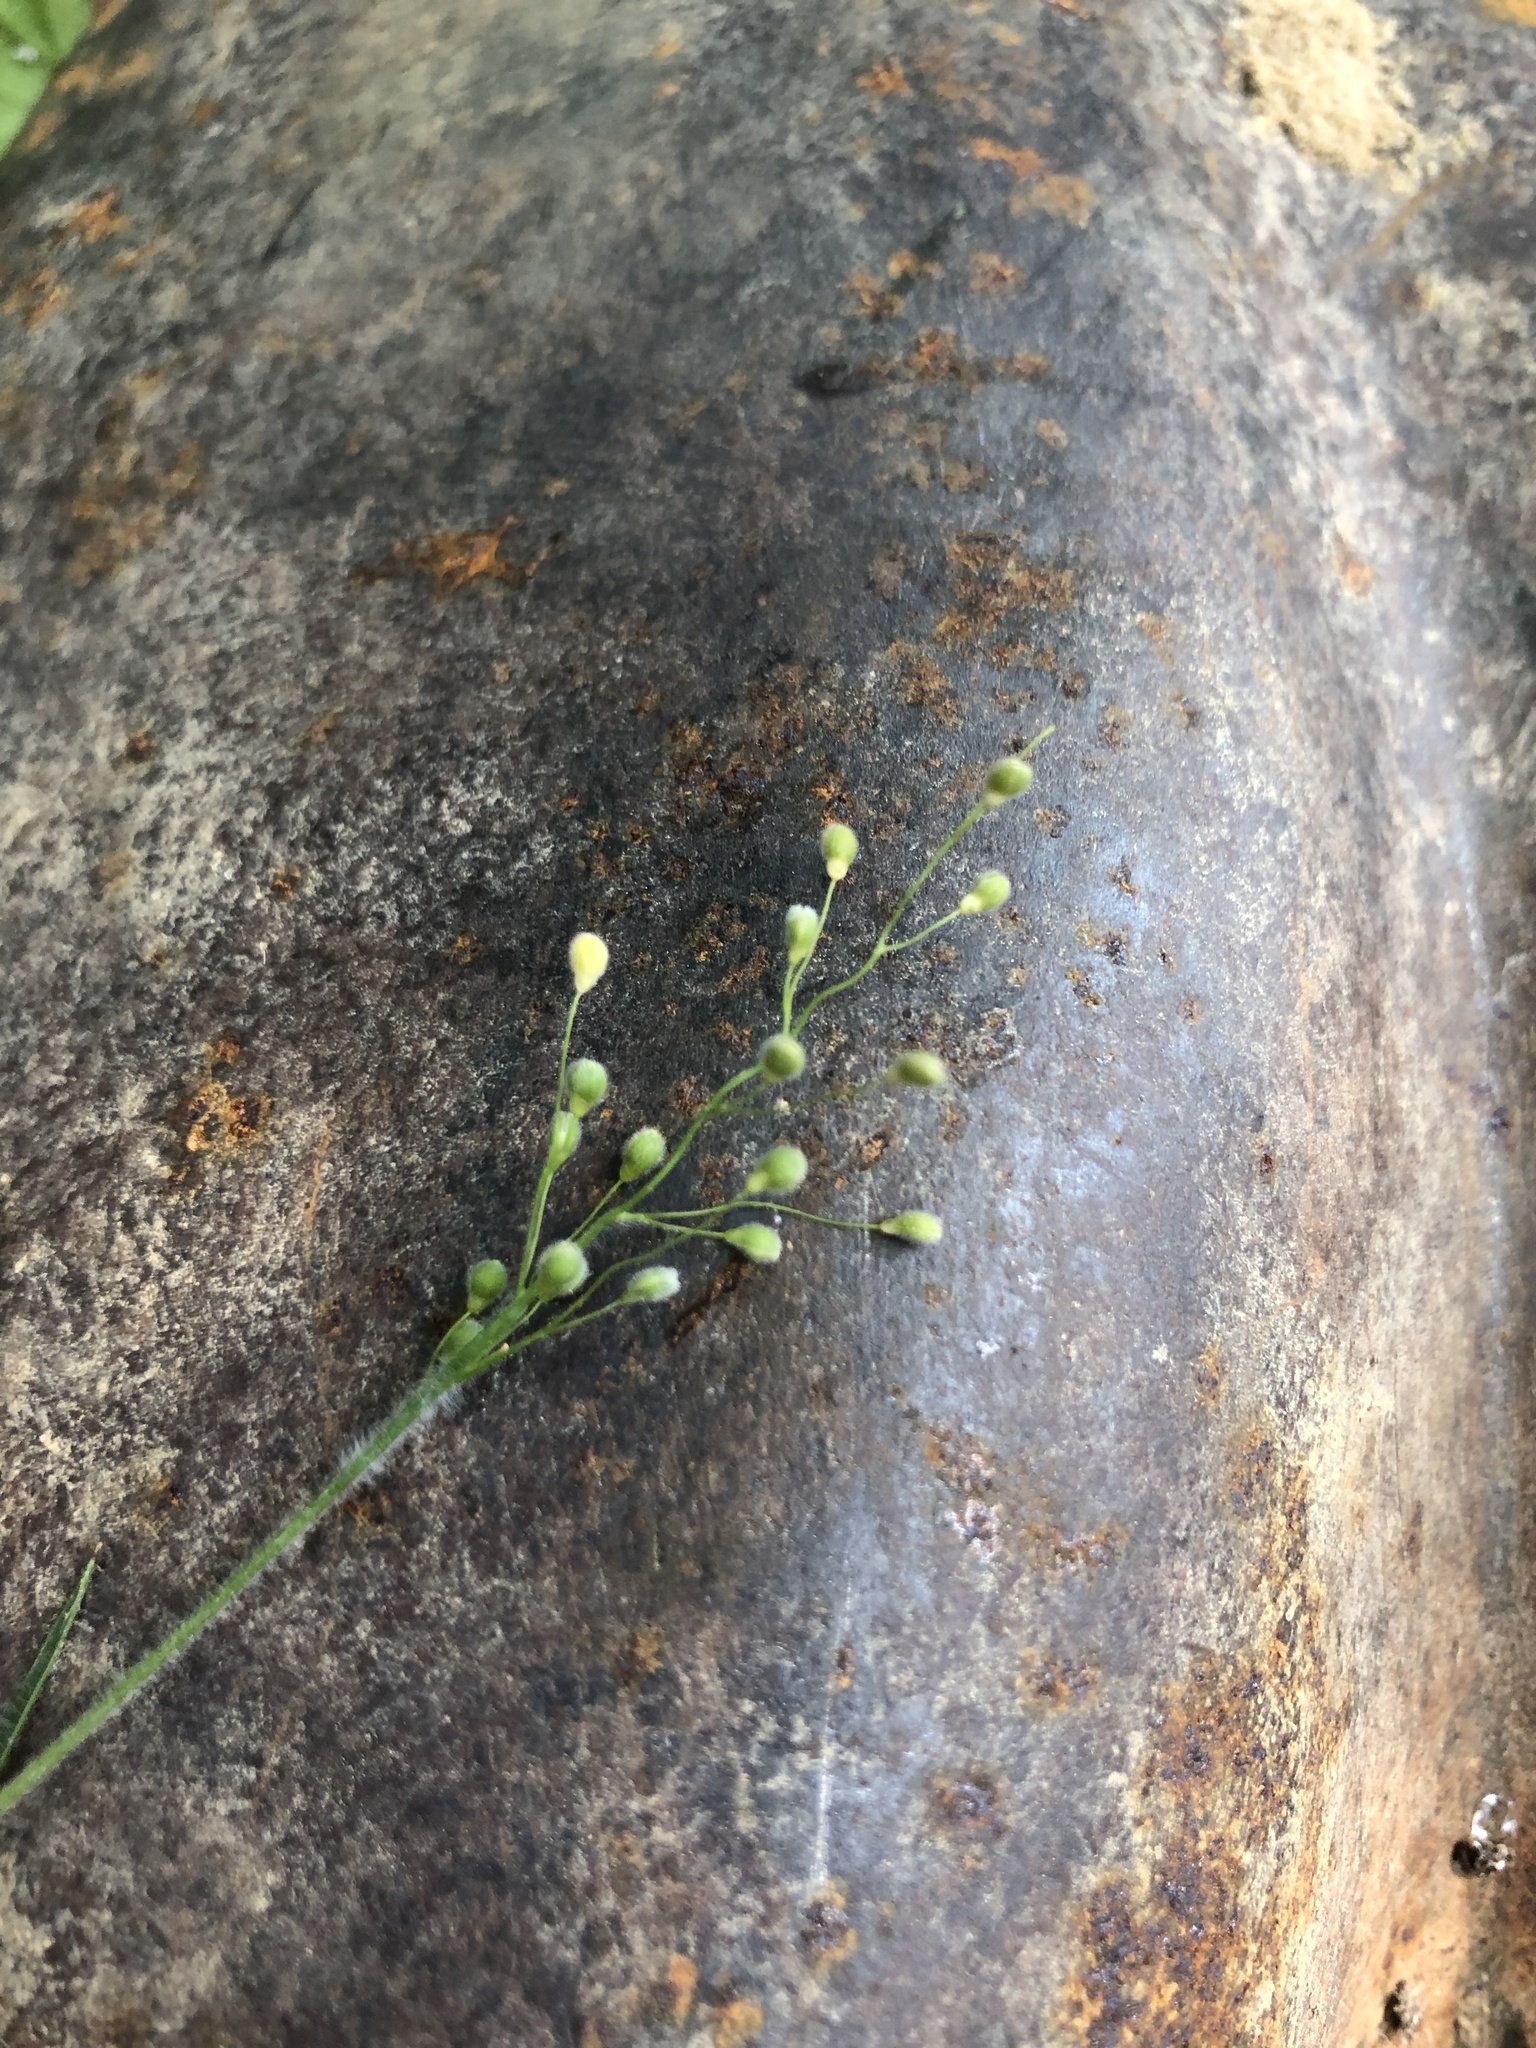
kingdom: Plantae
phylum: Tracheophyta
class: Liliopsida
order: Poales
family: Poaceae
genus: Dichanthelium
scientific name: Dichanthelium consanguineum
